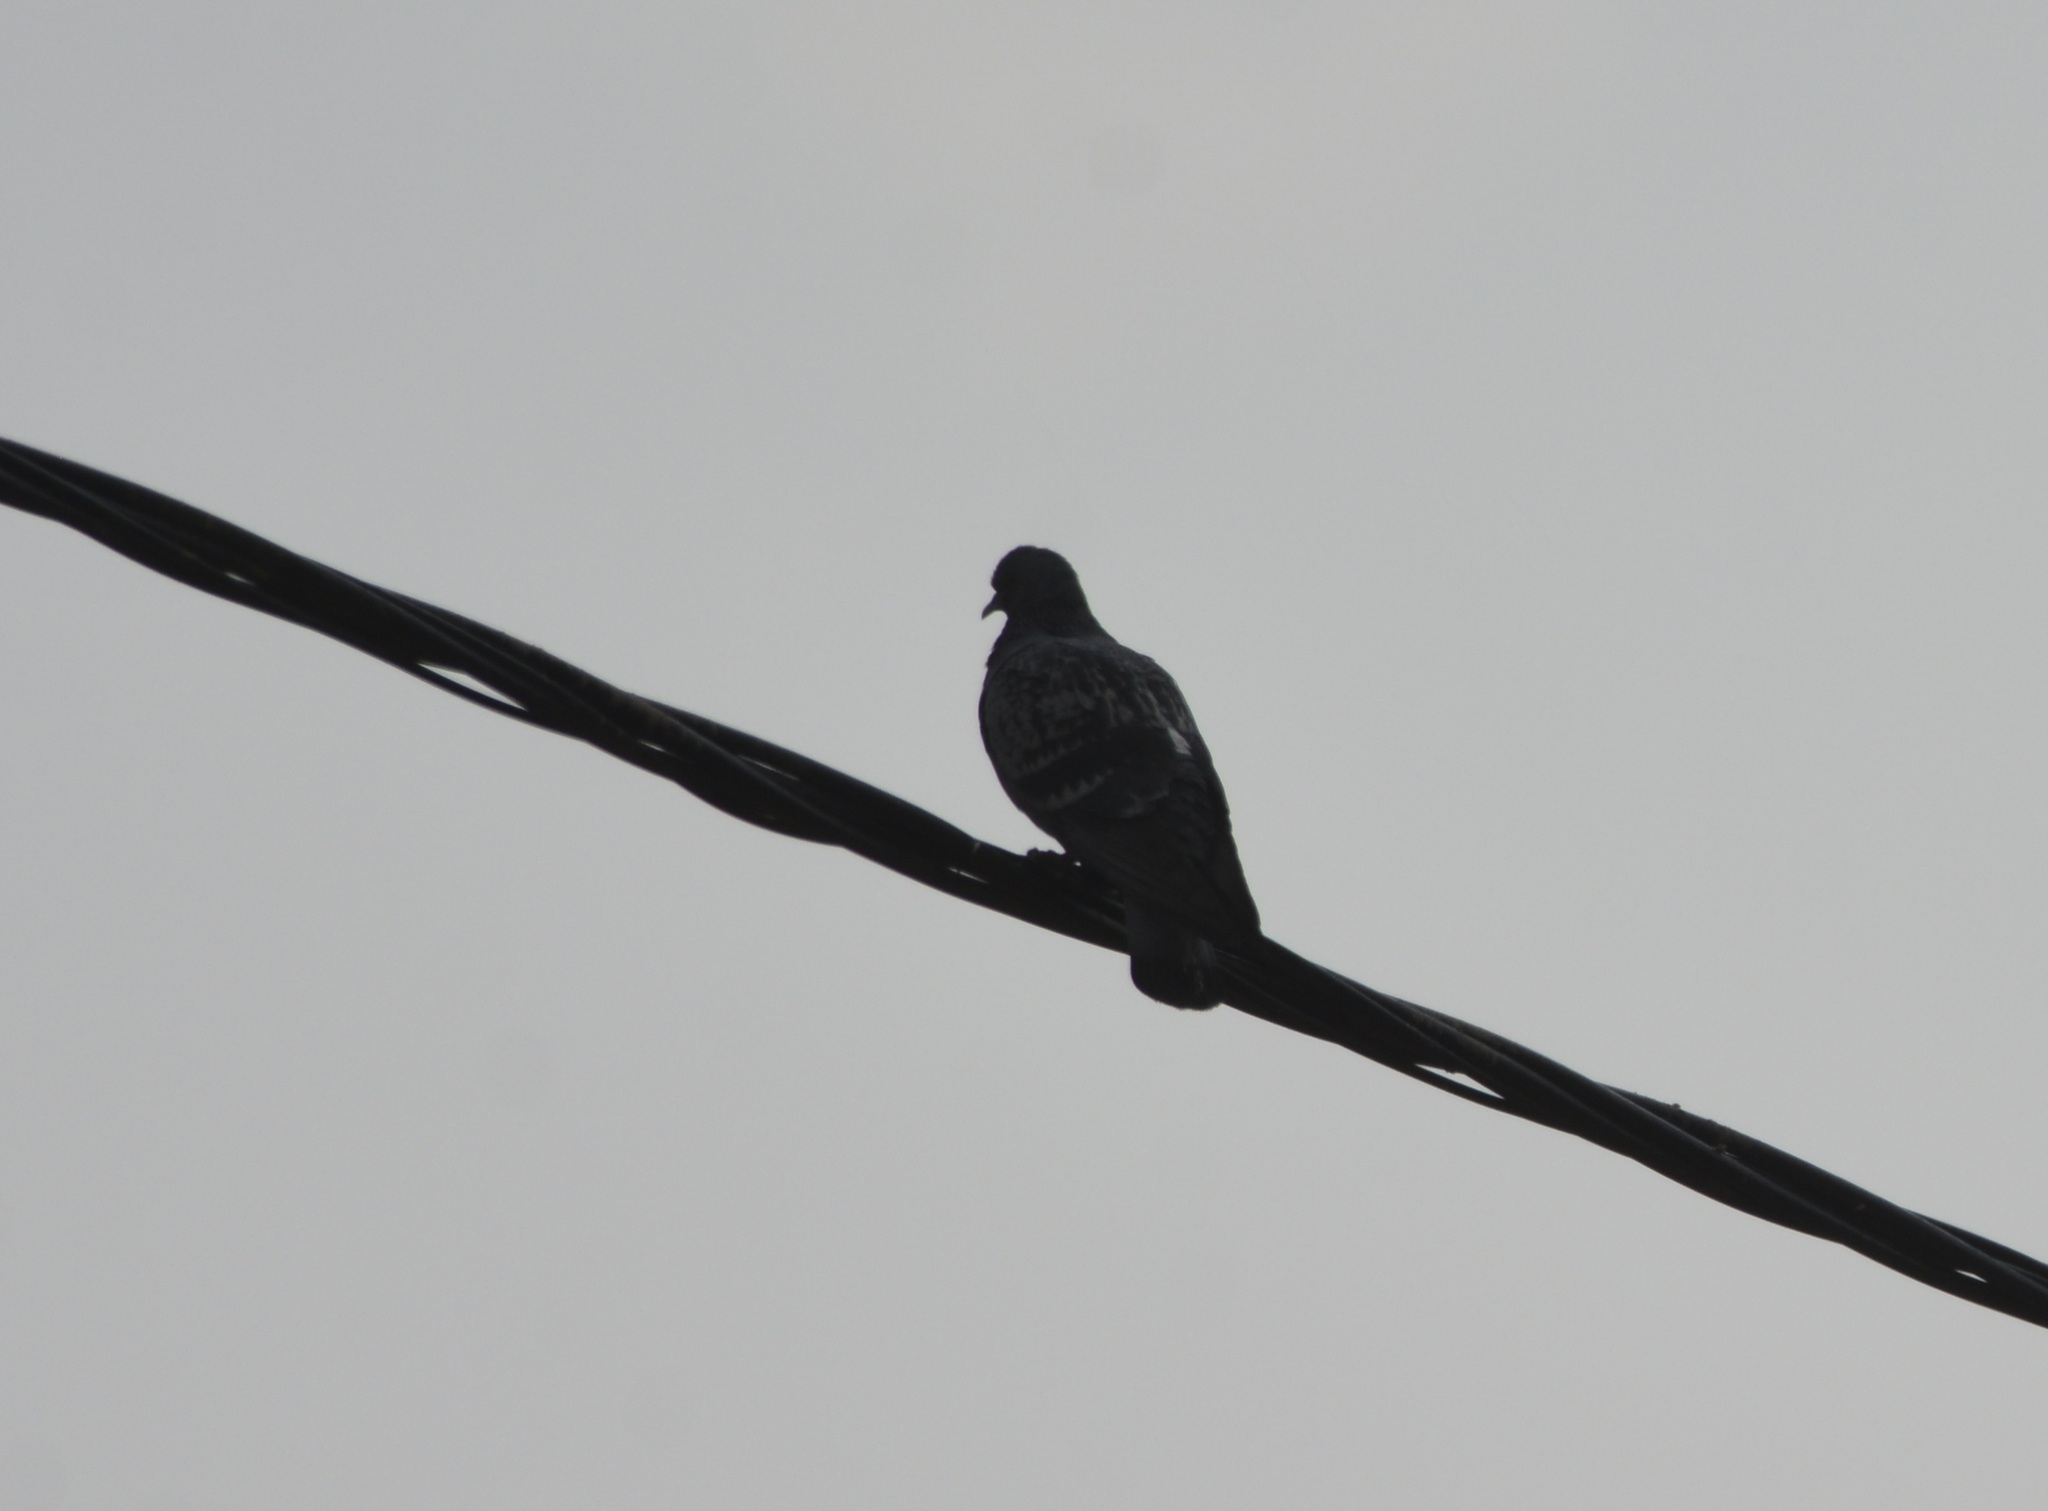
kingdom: Animalia
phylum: Chordata
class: Aves
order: Columbiformes
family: Columbidae
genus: Columba
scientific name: Columba livia
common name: Rock pigeon
